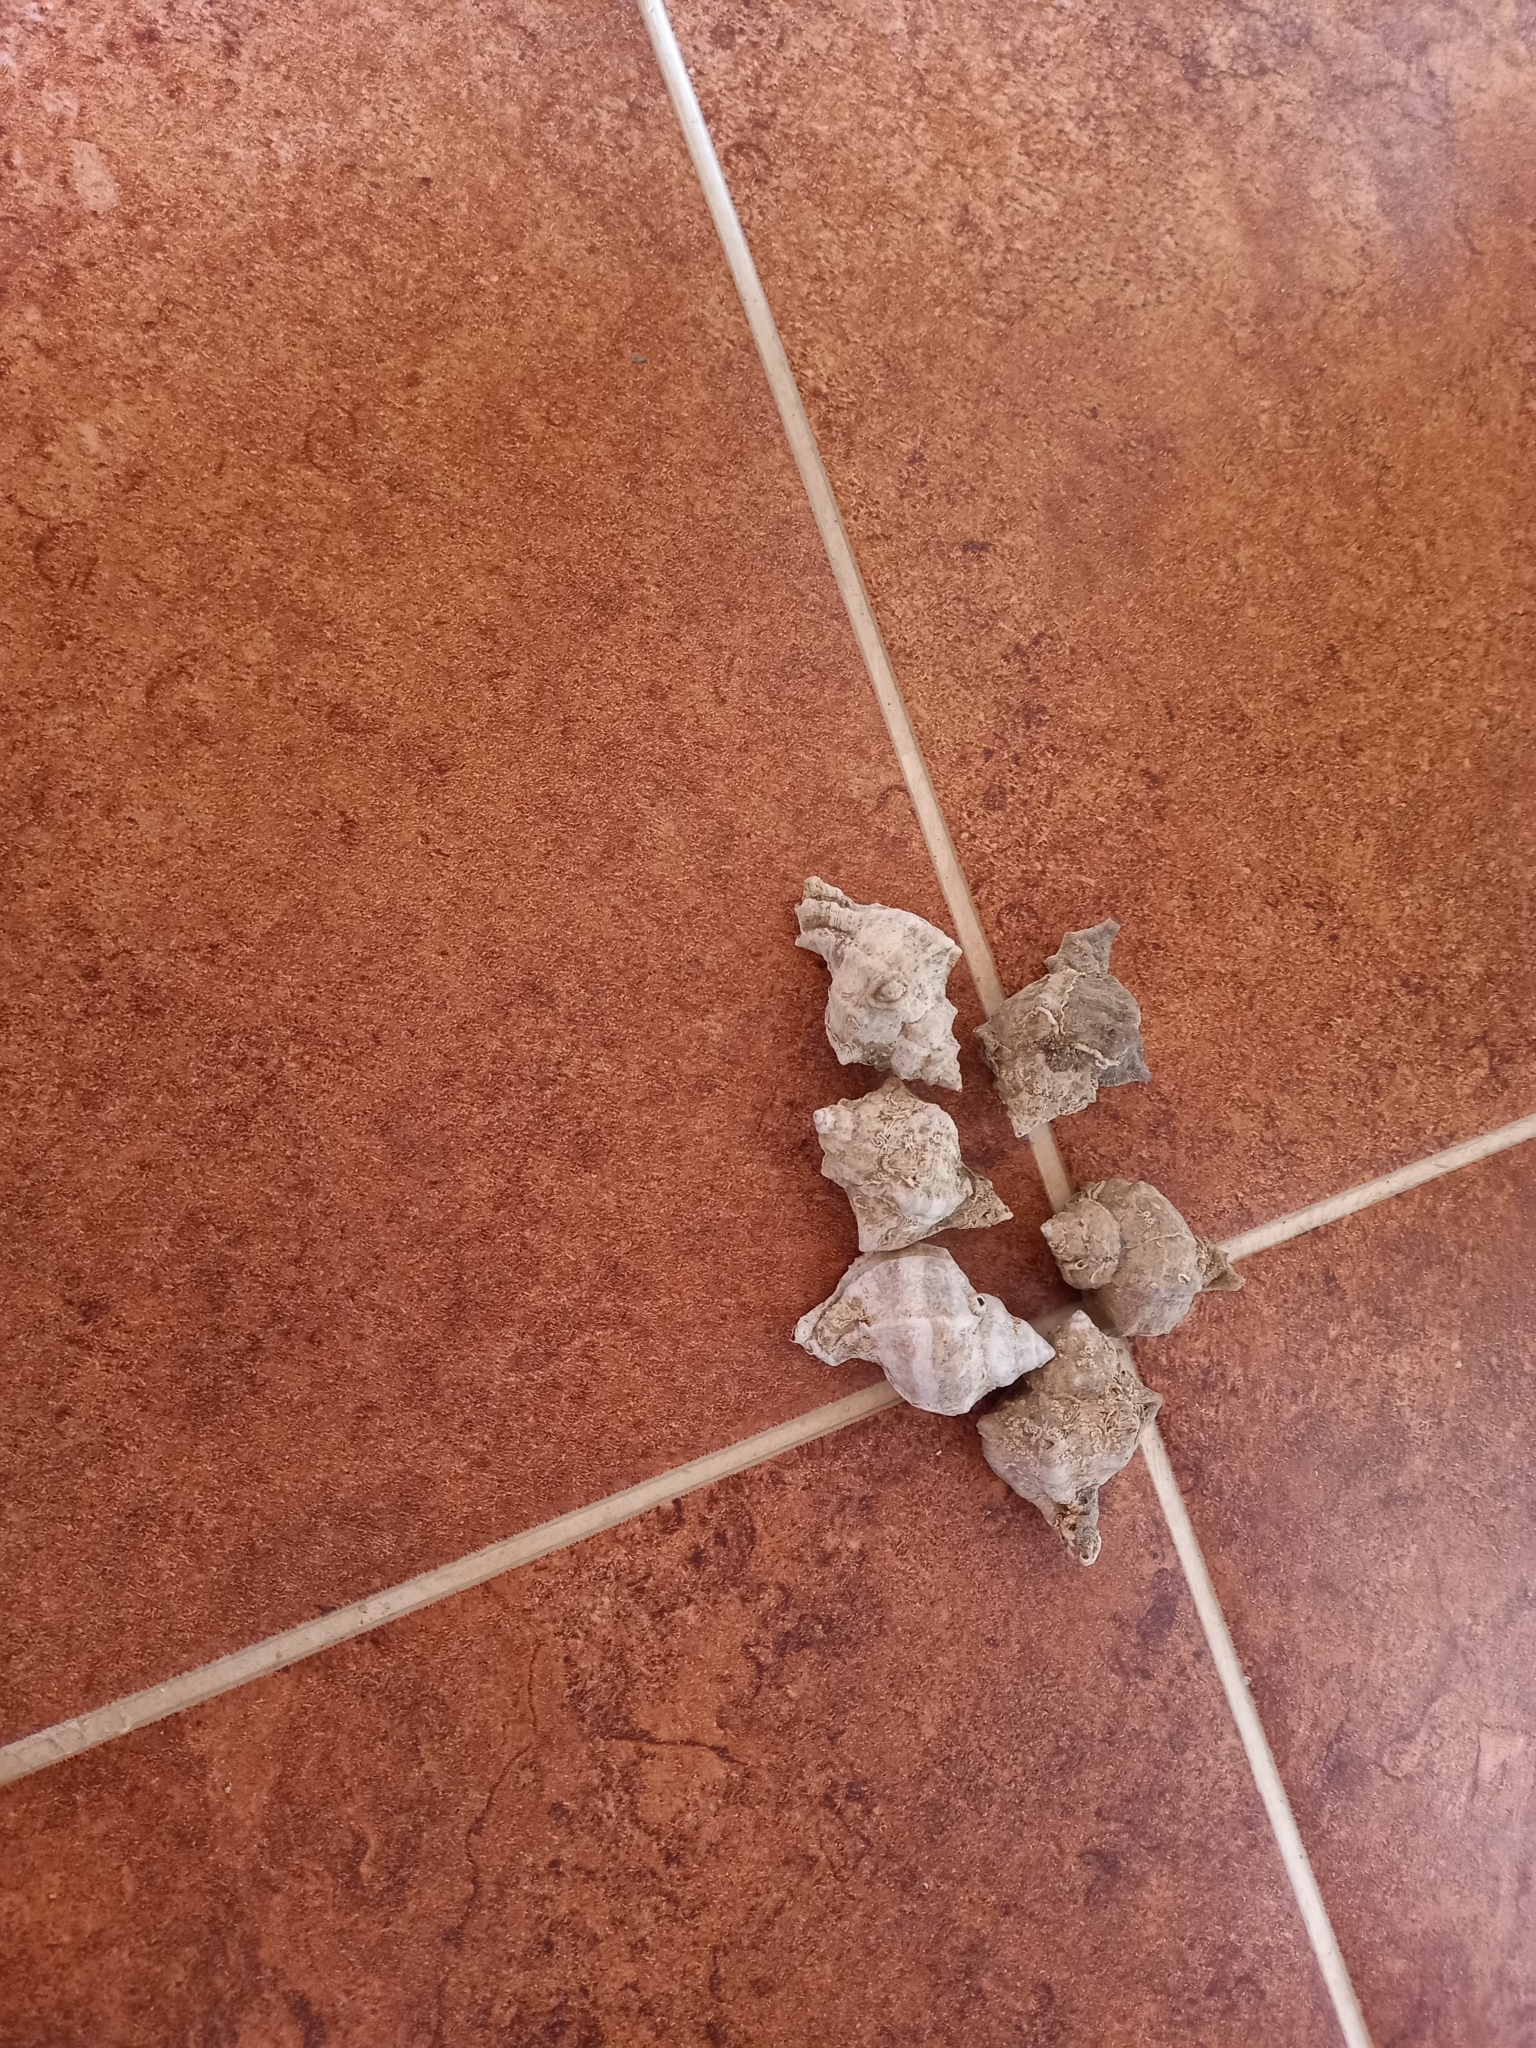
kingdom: Animalia
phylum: Mollusca
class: Gastropoda
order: Neogastropoda
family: Muricidae
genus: Hexaplex
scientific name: Hexaplex trunculus
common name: Banded dye-murex
